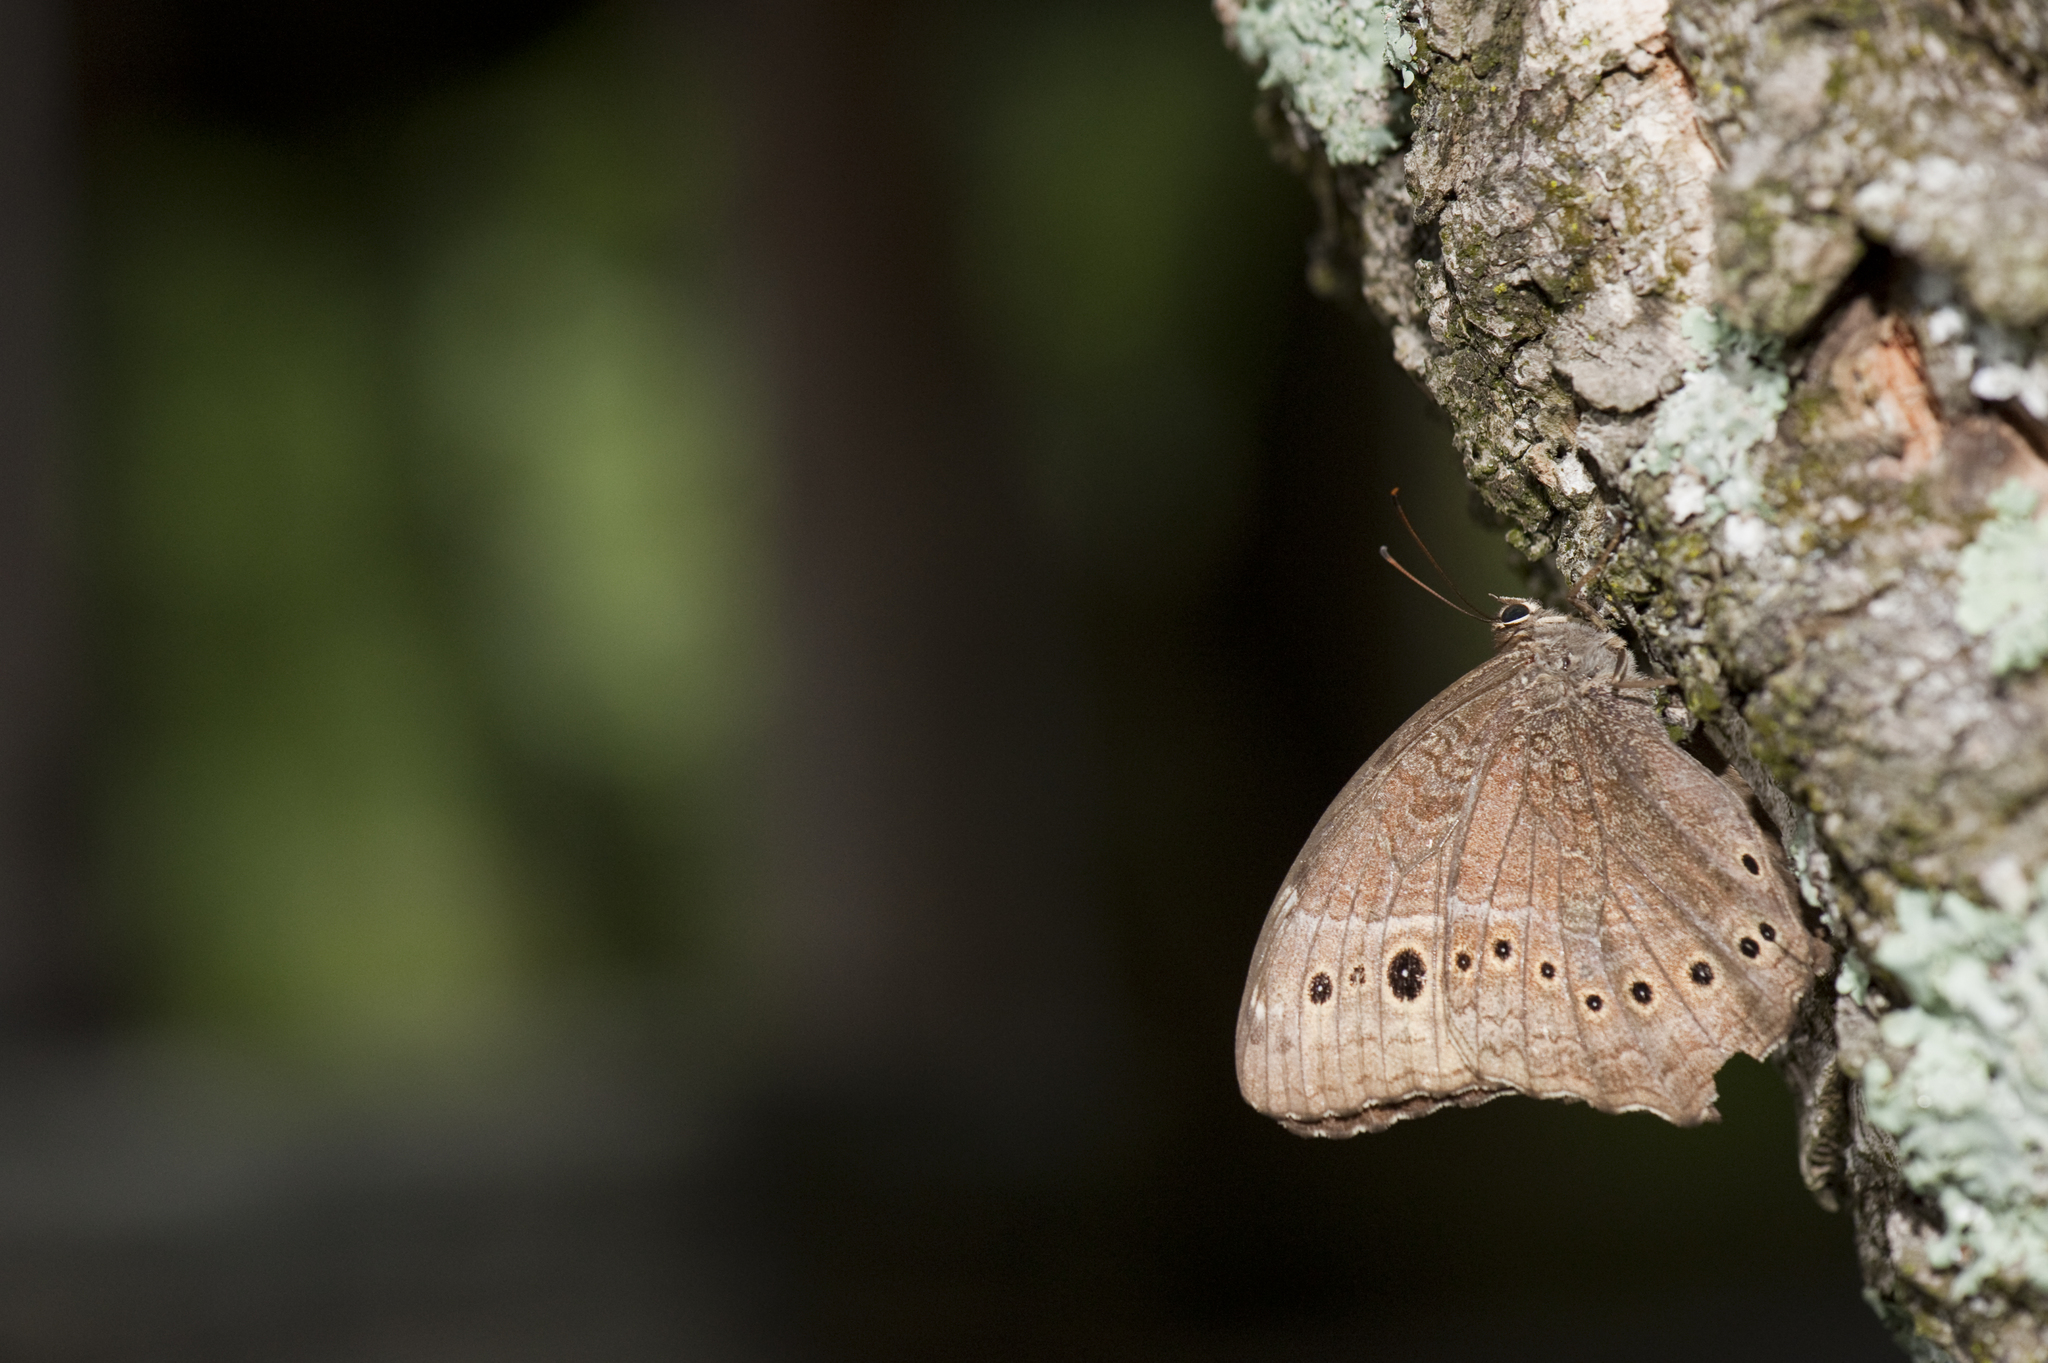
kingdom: Animalia
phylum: Arthropoda
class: Insecta
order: Lepidoptera
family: Nymphalidae
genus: Neope
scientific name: Neope muirheadii
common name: Black-spotted labyrinth
